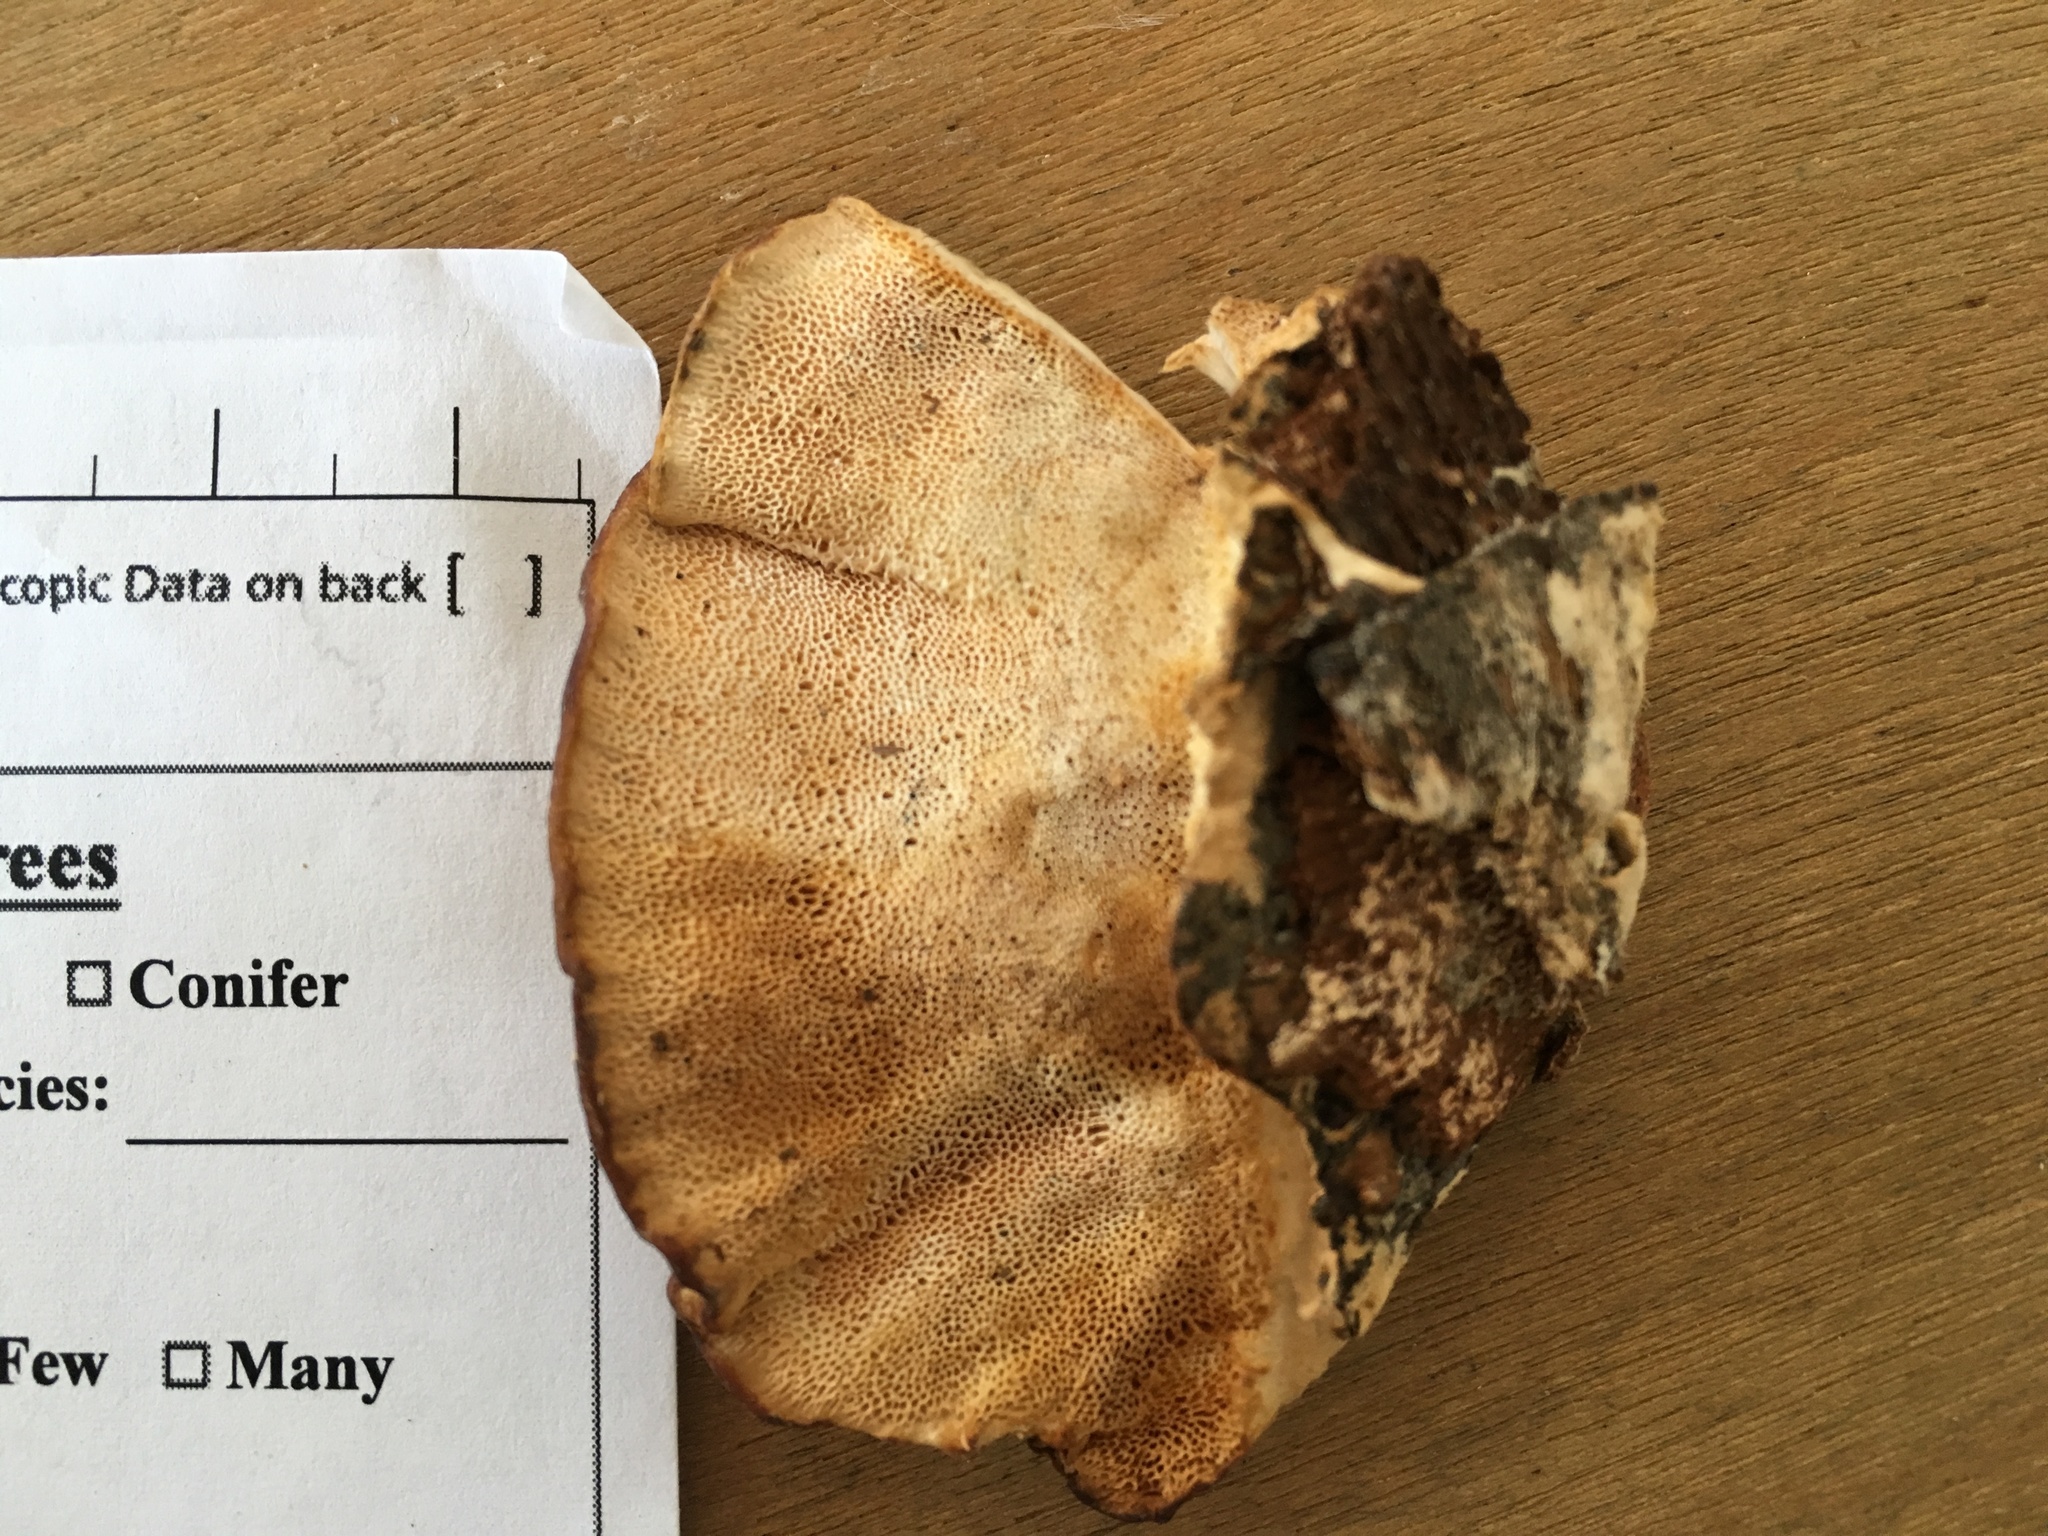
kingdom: Fungi
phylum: Basidiomycota
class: Agaricomycetes
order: Polyporales
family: Polyporaceae
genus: Trametes
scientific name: Trametes lactinea
